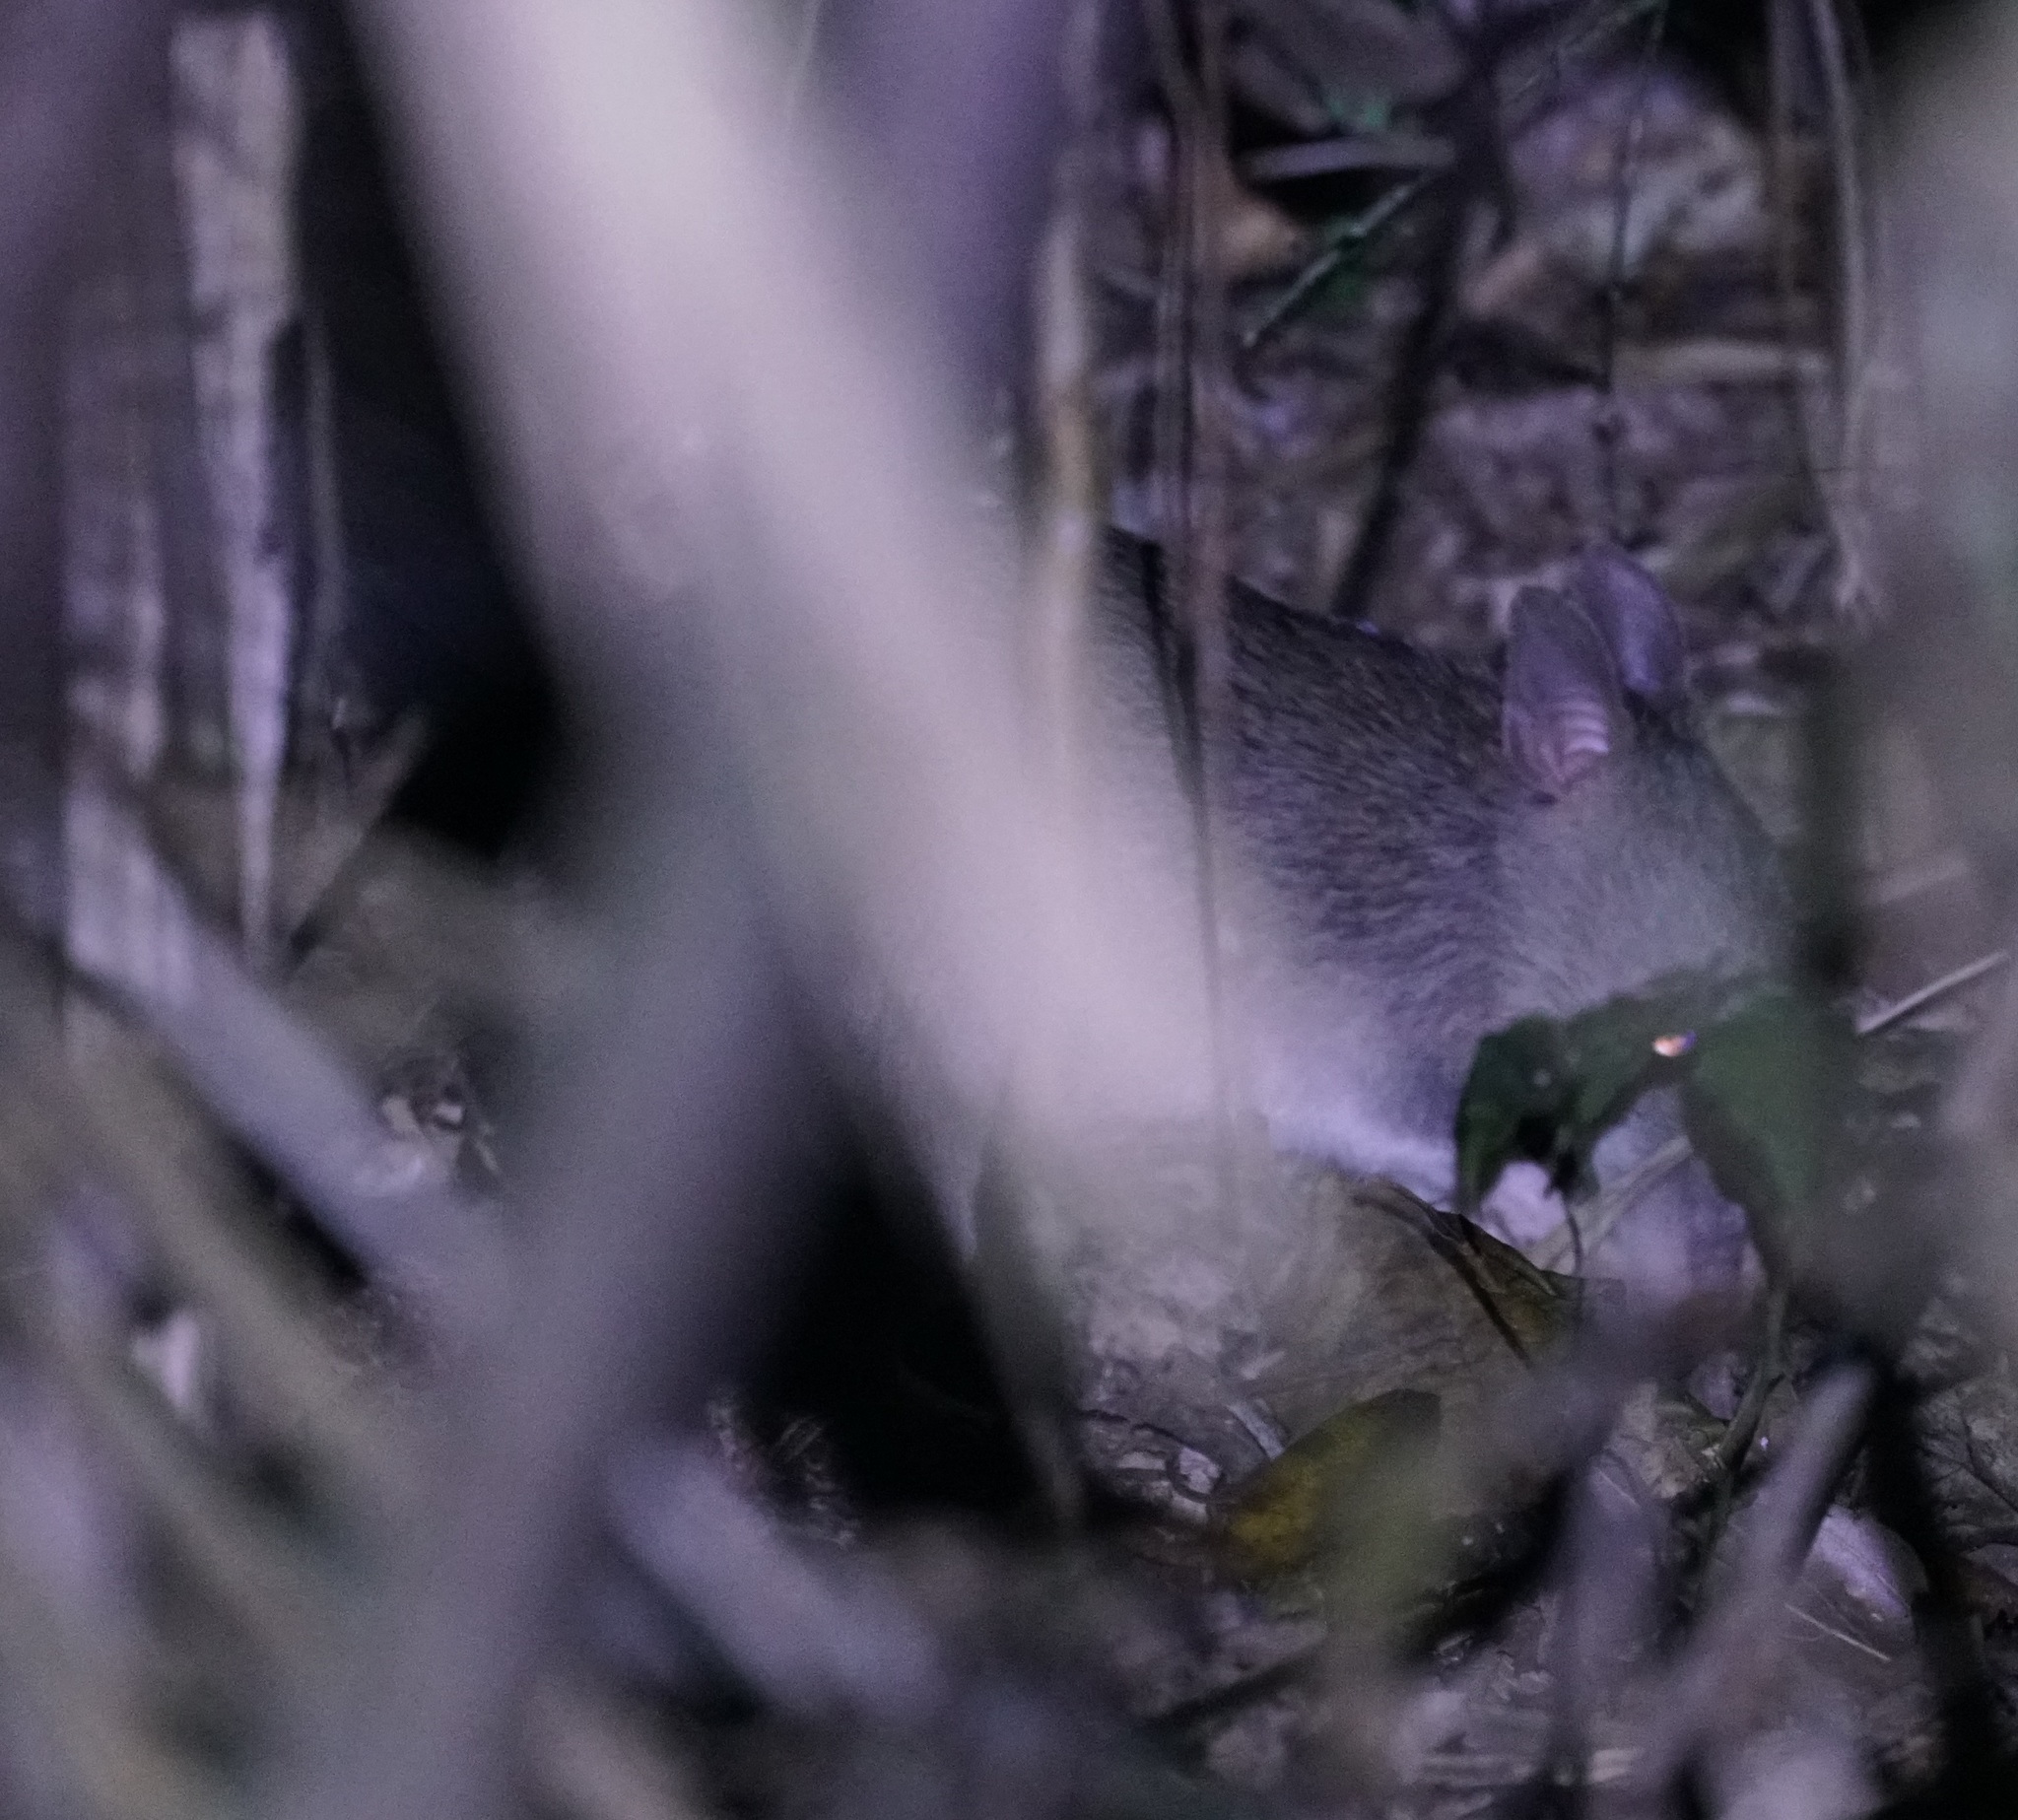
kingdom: Animalia
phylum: Chordata
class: Mammalia
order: Peramelemorphia
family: Peramelidae
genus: Perameles
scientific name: Perameles pallescens
